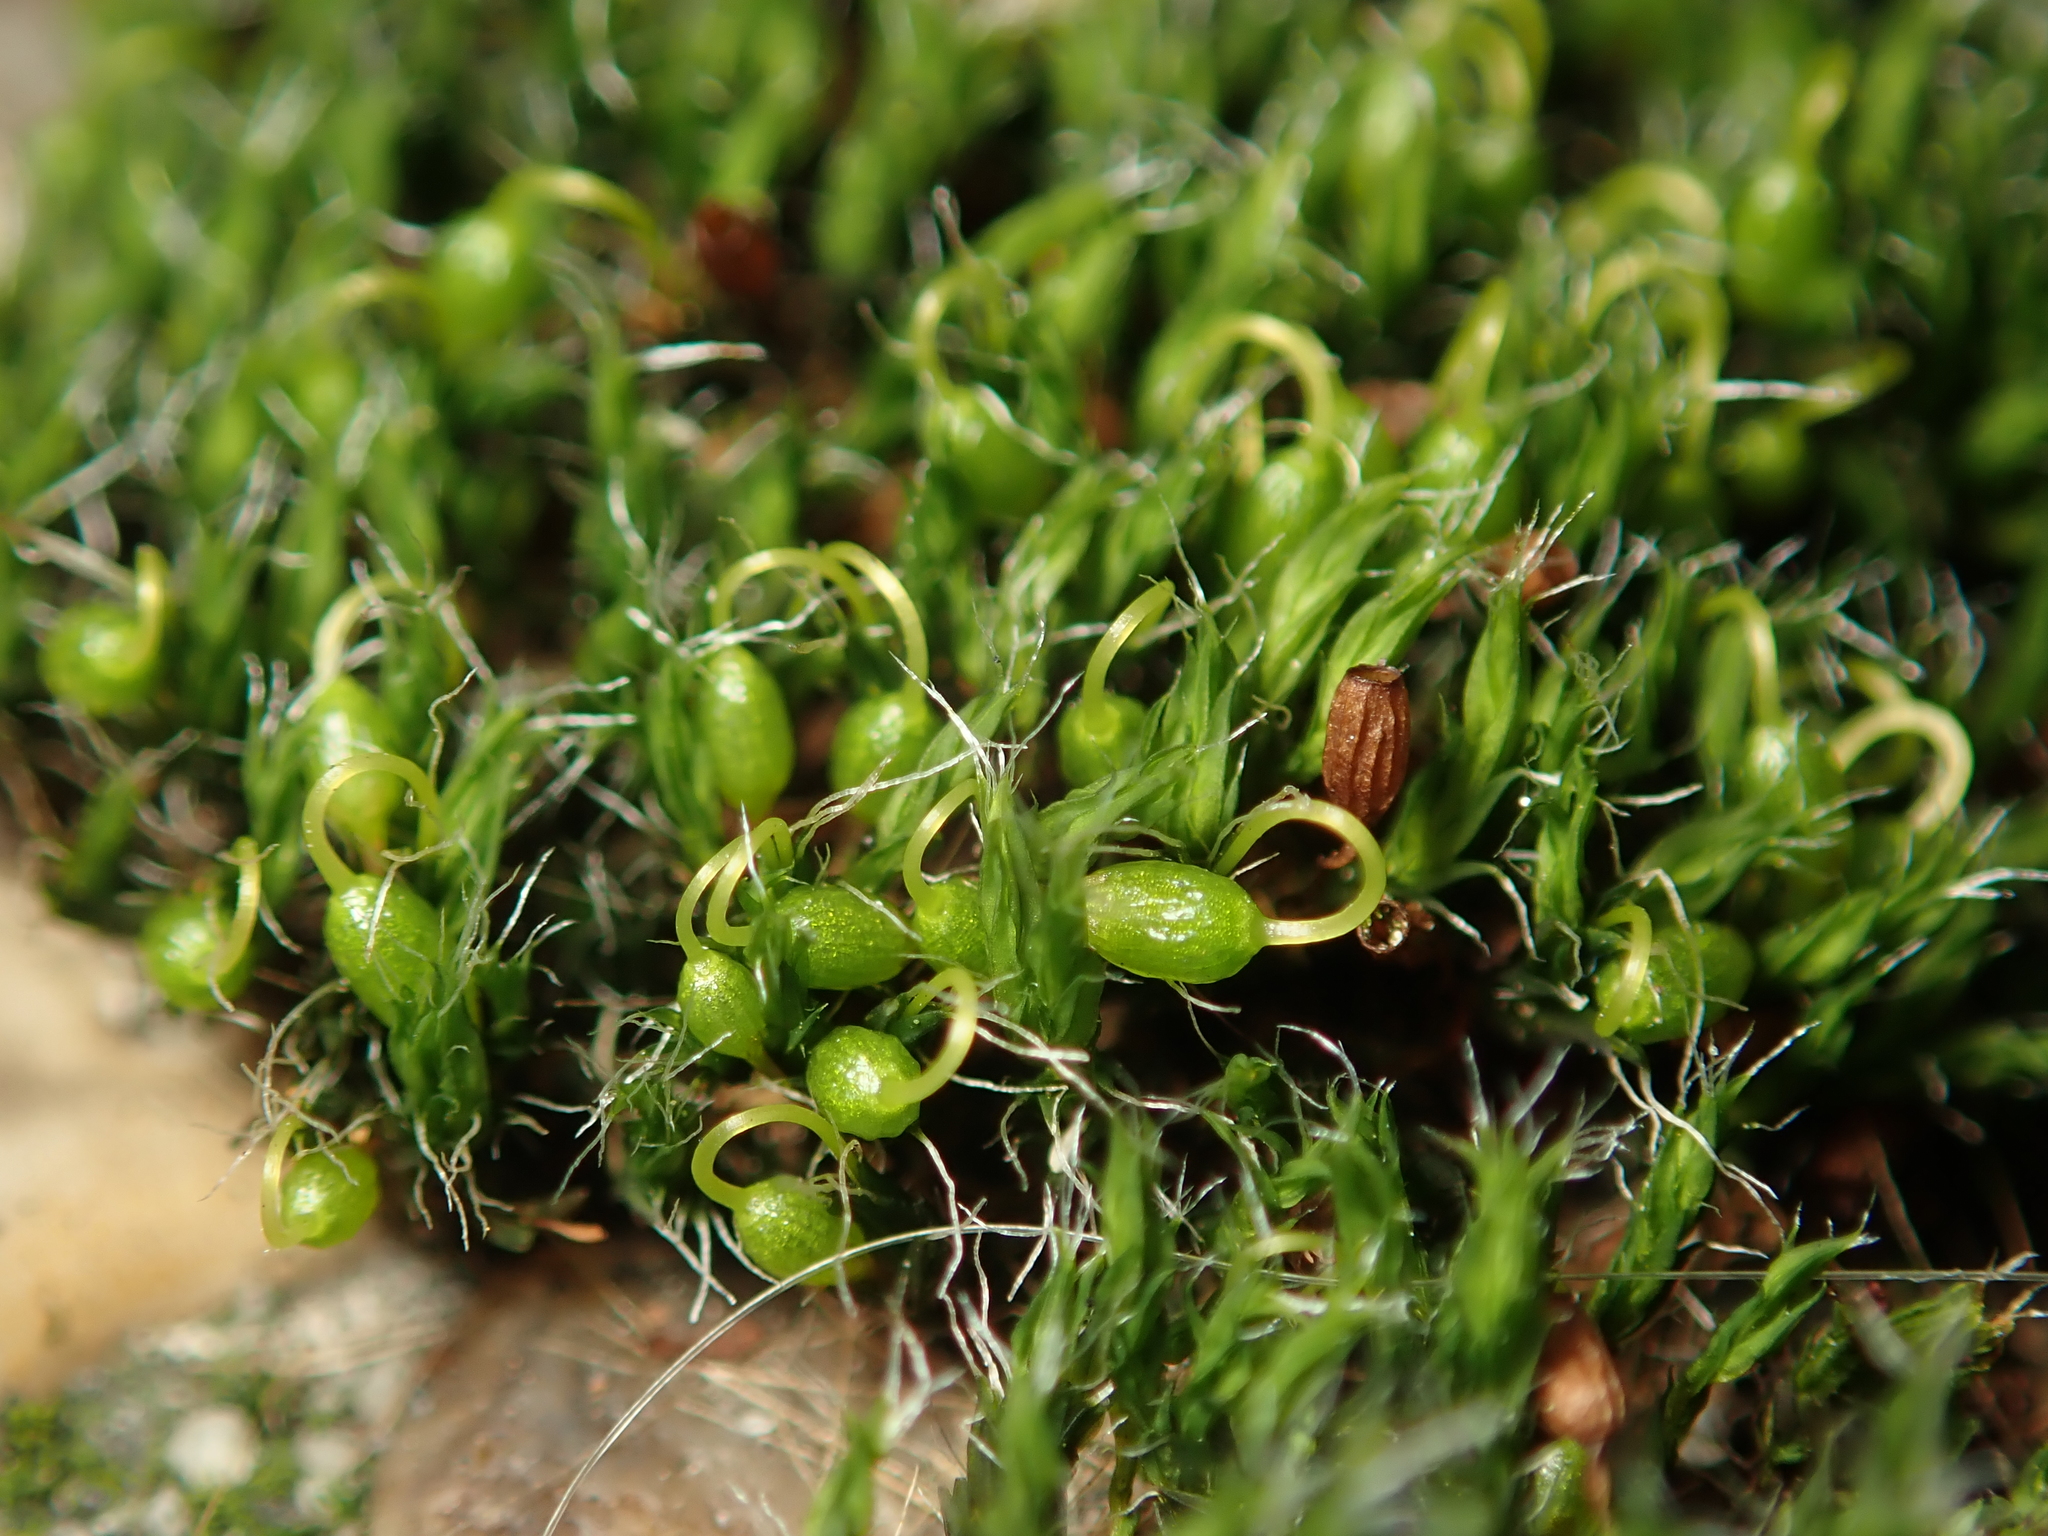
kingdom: Plantae
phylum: Bryophyta
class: Bryopsida
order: Grimmiales
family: Grimmiaceae
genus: Grimmia
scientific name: Grimmia pulvinata
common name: Grey-cushioned grimmia
